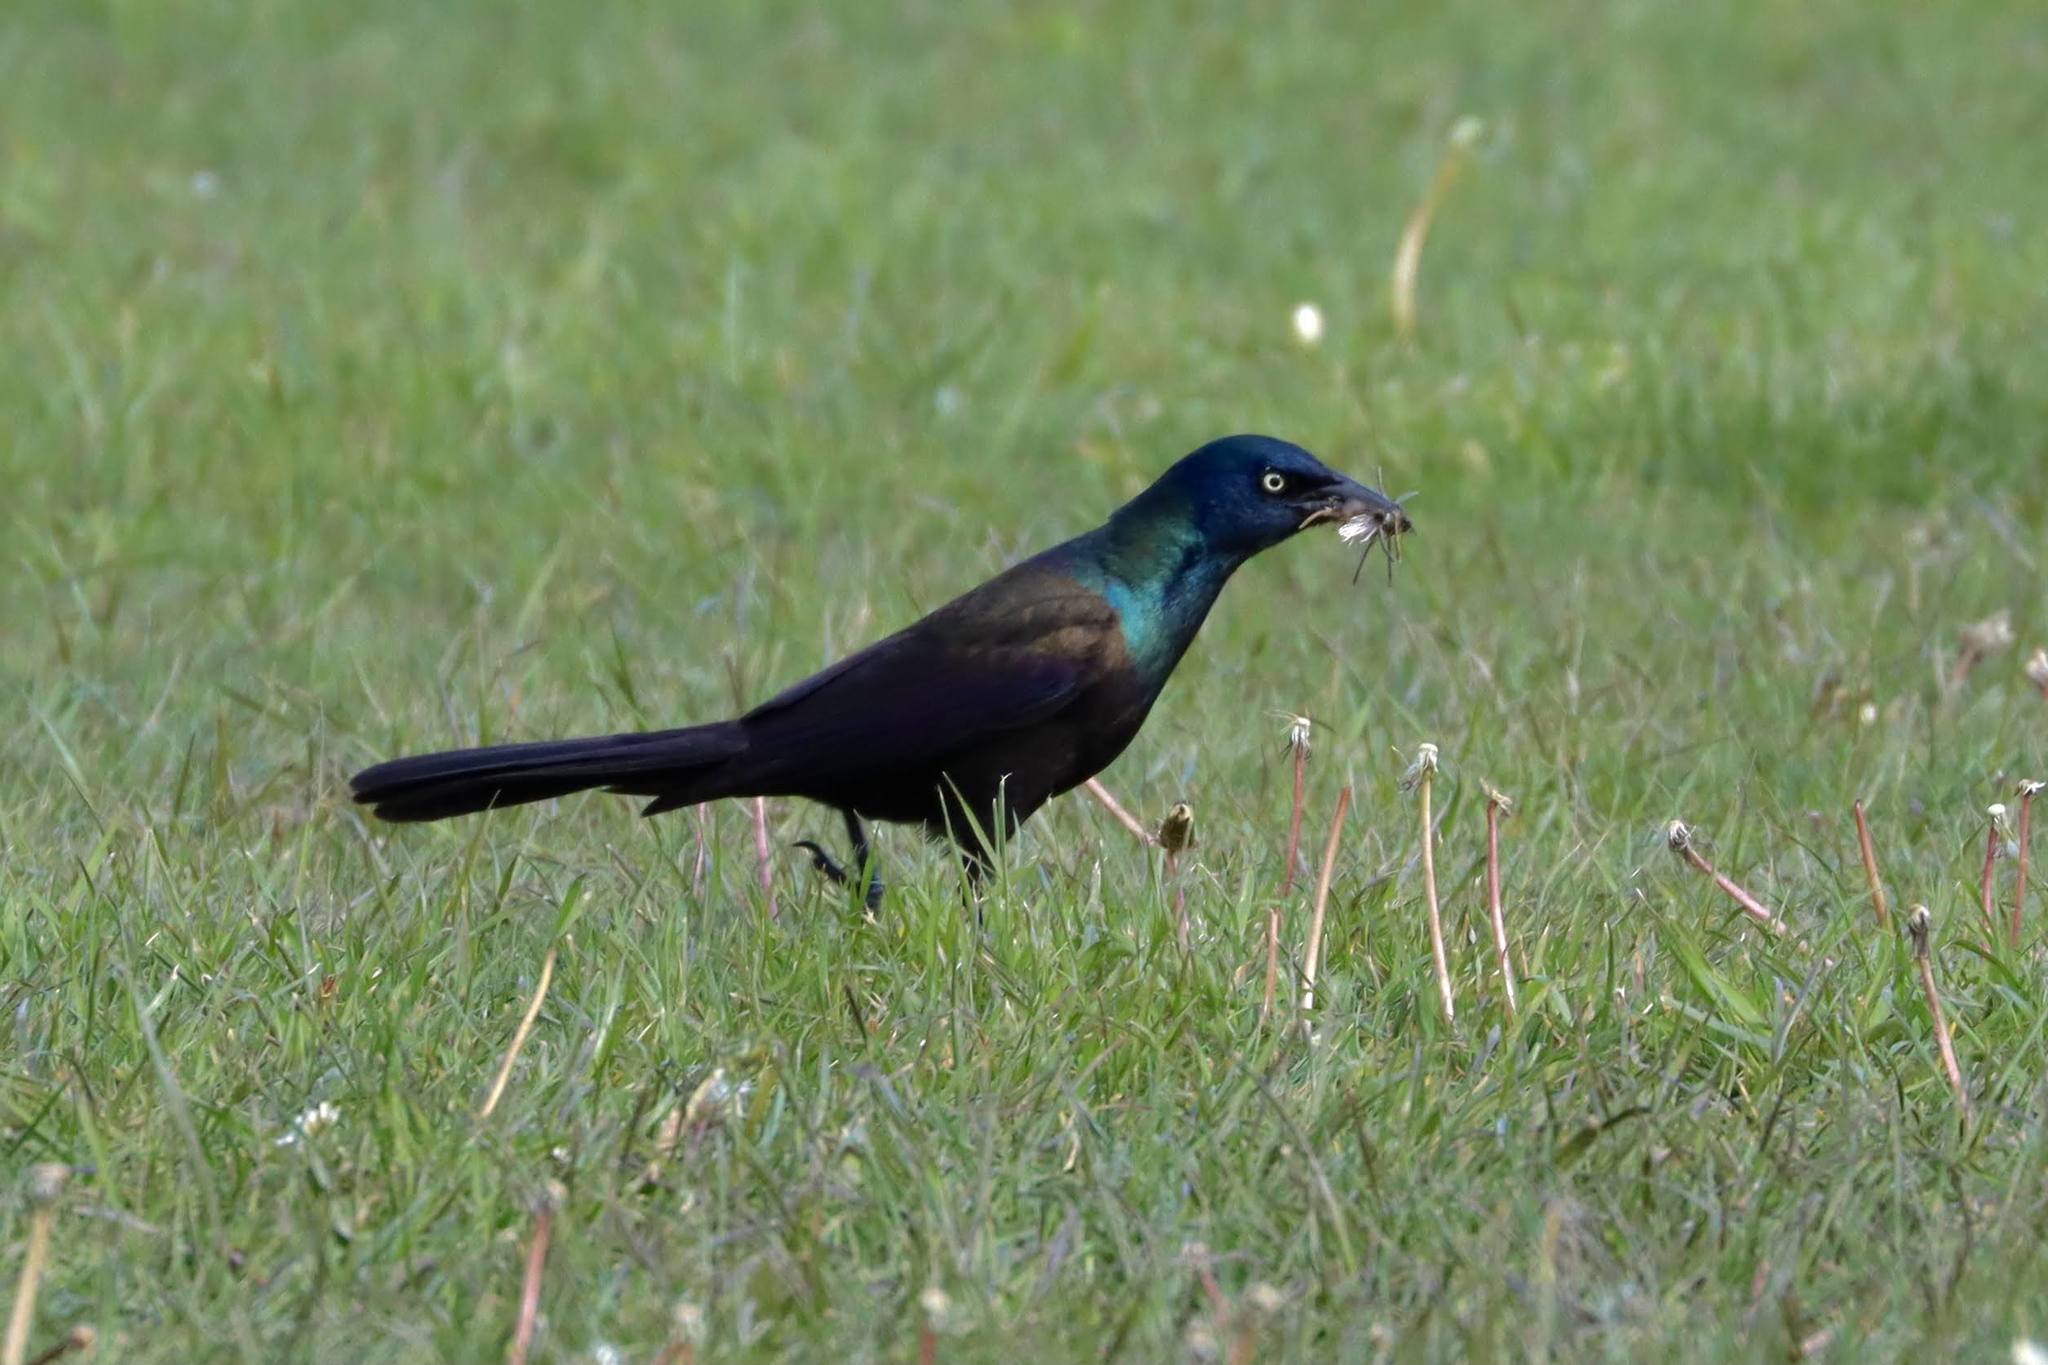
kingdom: Animalia
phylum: Chordata
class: Aves
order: Passeriformes
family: Icteridae
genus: Quiscalus
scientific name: Quiscalus quiscula
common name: Common grackle
